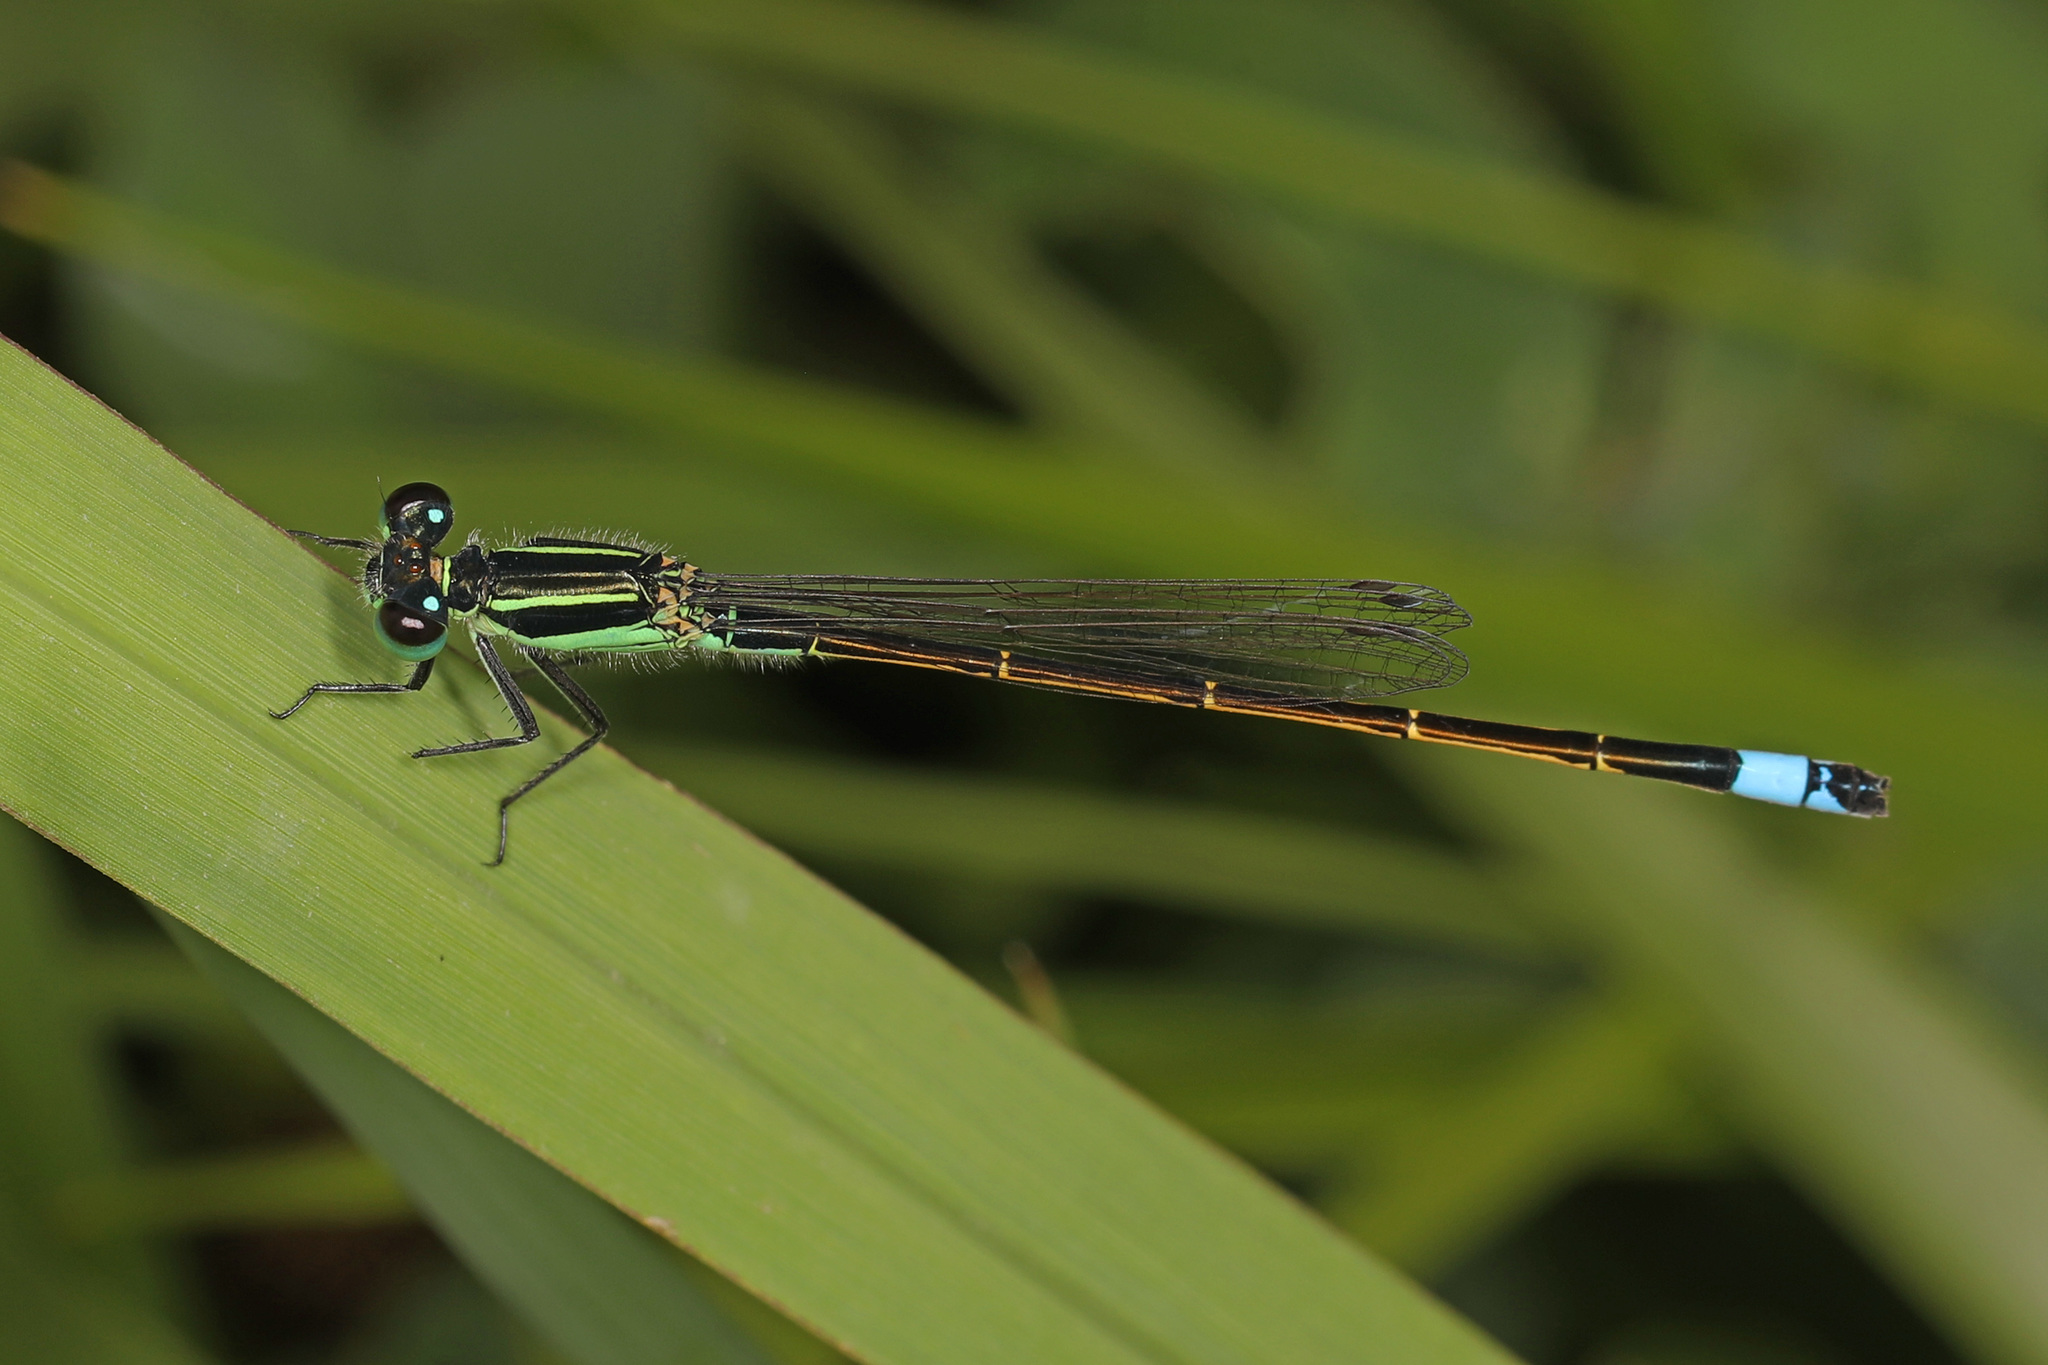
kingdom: Animalia
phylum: Arthropoda
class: Insecta
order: Odonata
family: Coenagrionidae
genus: Ischnura
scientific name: Ischnura ramburii
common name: Rambur's forktail
